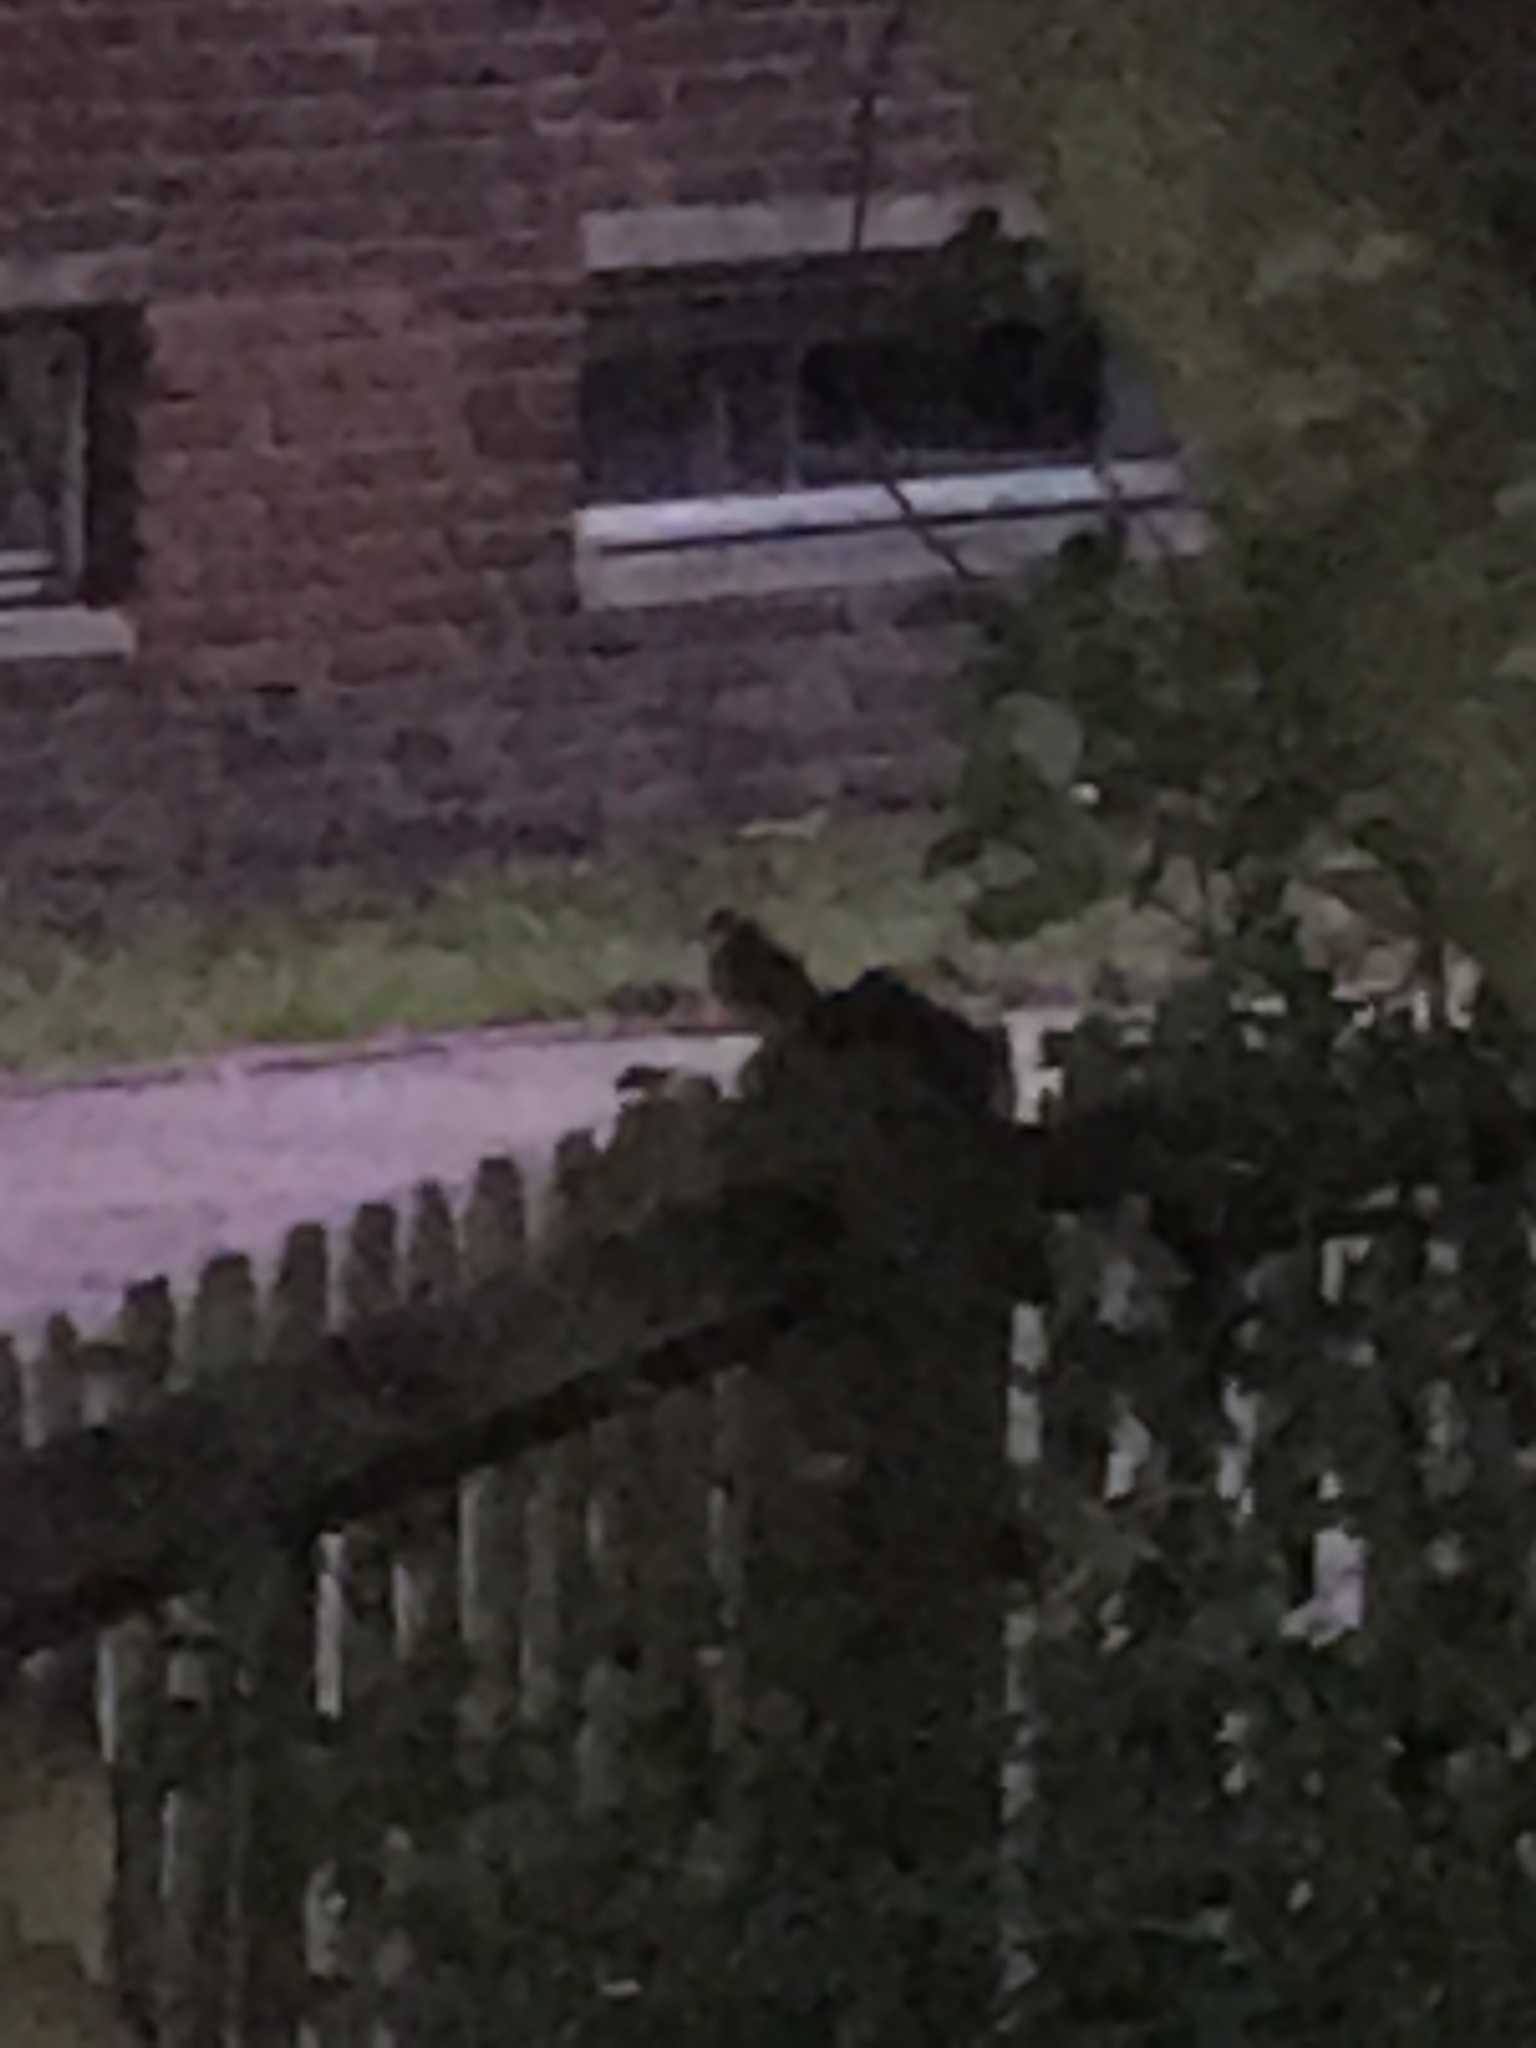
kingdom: Animalia
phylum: Chordata
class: Aves
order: Passeriformes
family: Turdidae
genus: Turdus
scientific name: Turdus merula
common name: Common blackbird
